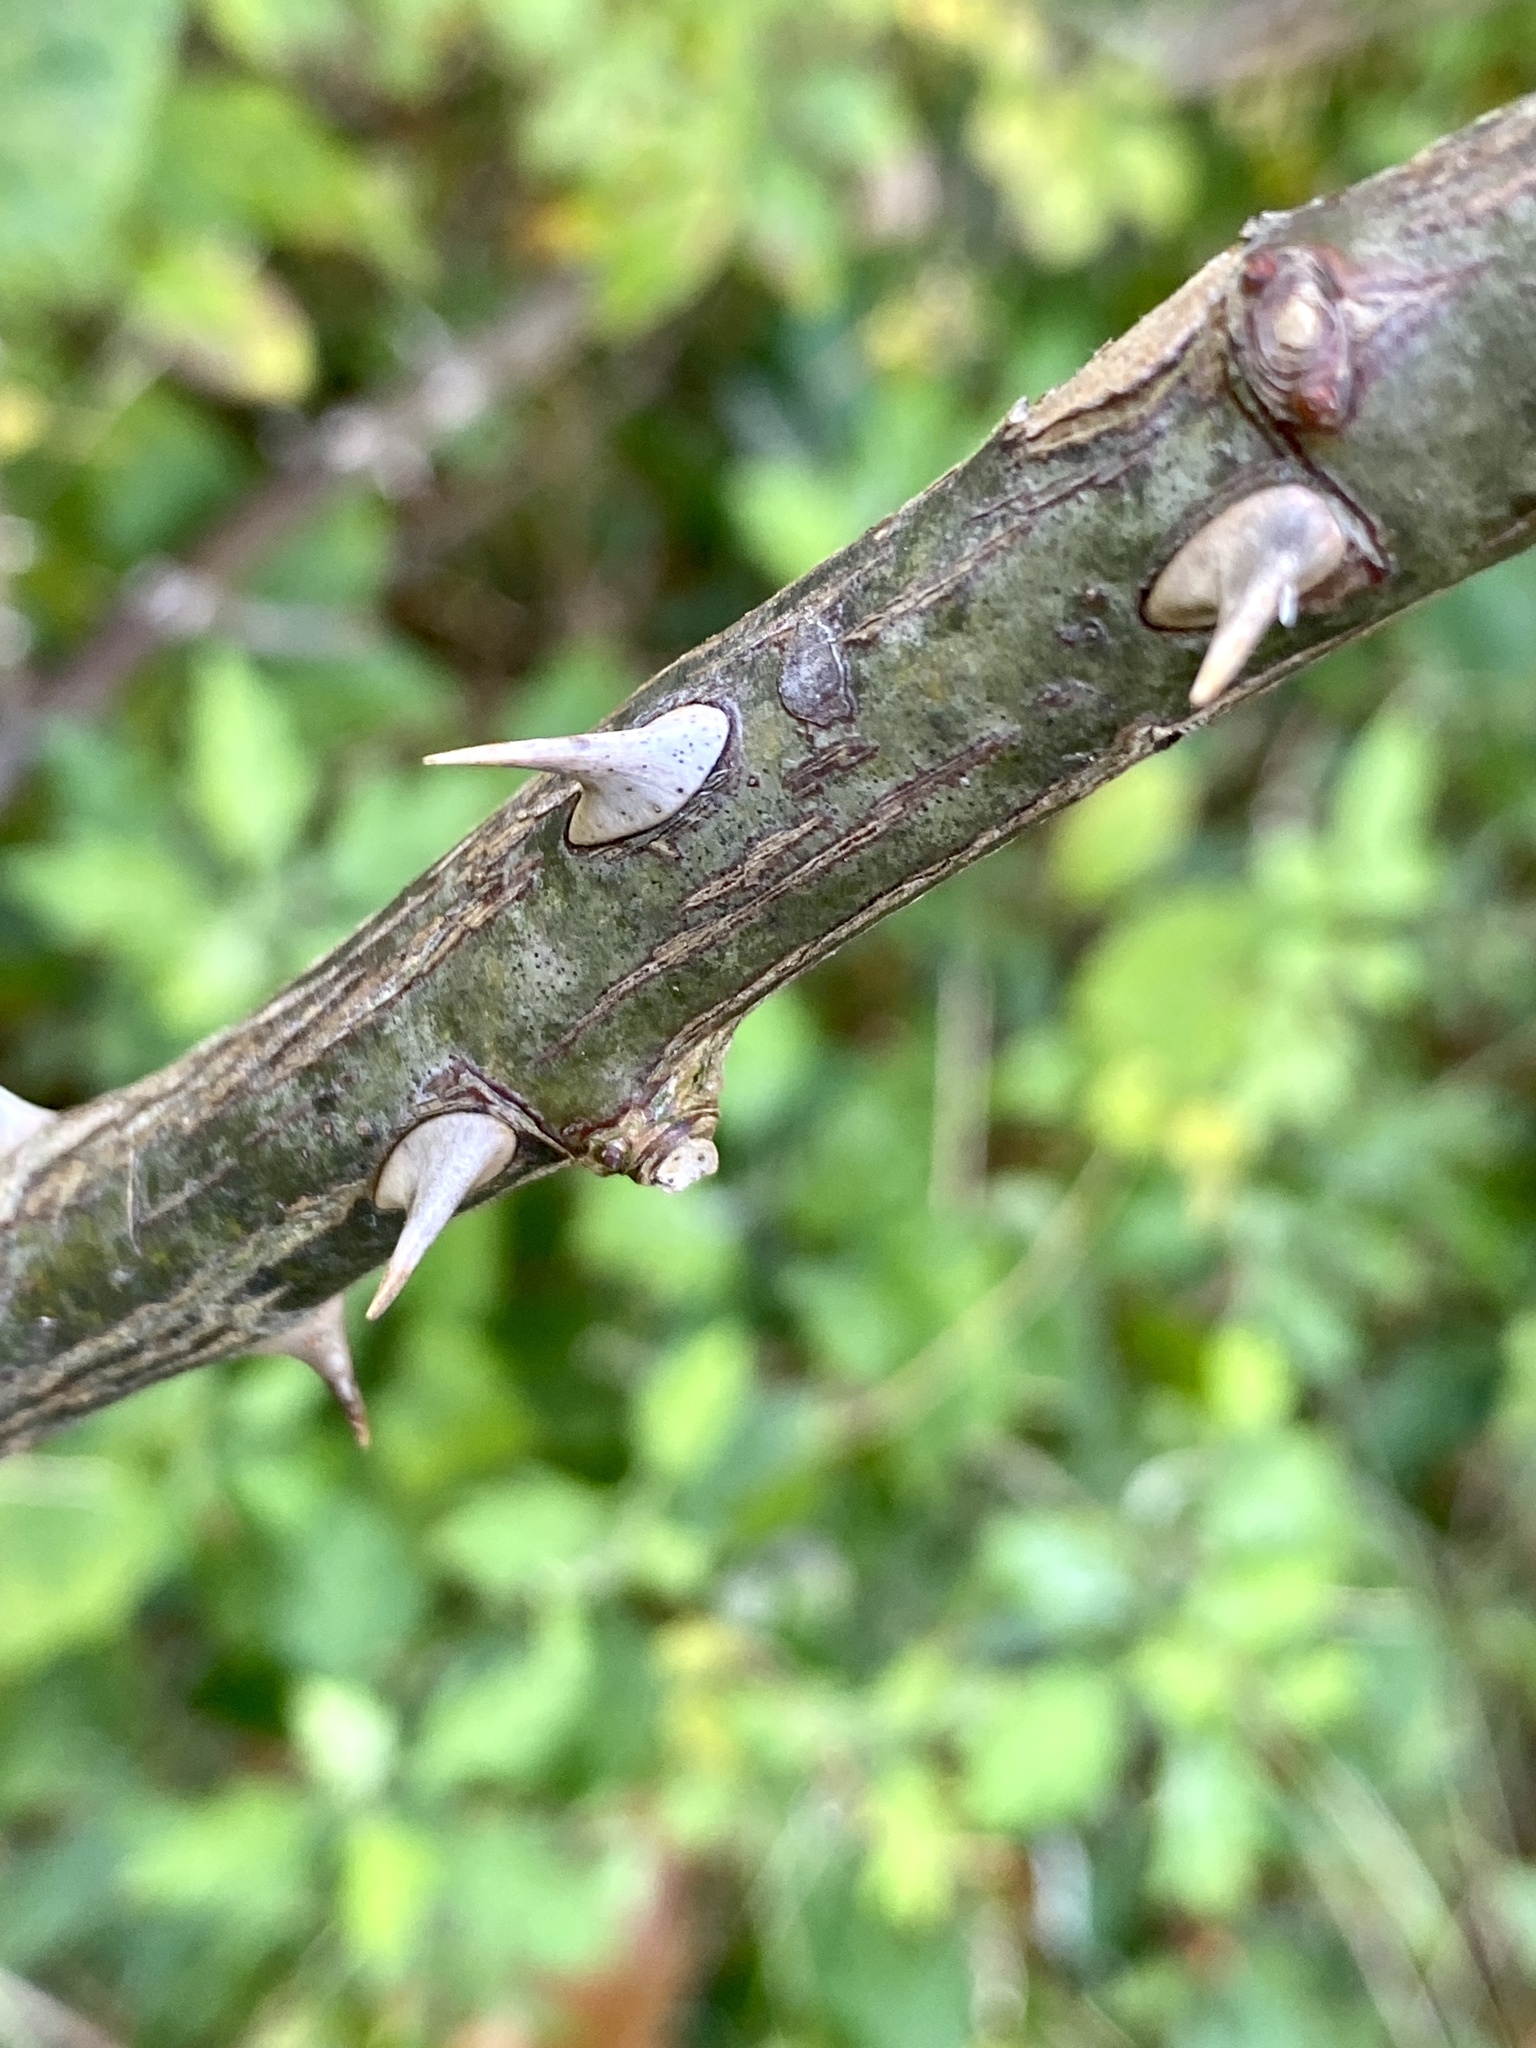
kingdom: Plantae
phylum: Tracheophyta
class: Magnoliopsida
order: Rosales
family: Rosaceae
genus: Rosa
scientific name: Rosa multiflora
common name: Multiflora rose
